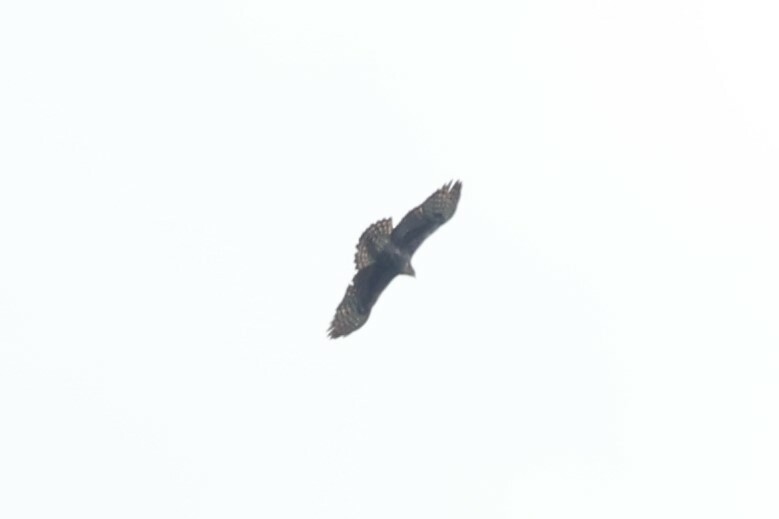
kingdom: Animalia
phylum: Chordata
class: Aves
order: Accipitriformes
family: Accipitridae
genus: Hieraaetus
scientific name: Hieraaetus ayresii
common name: Ayres's hawk-eagle
